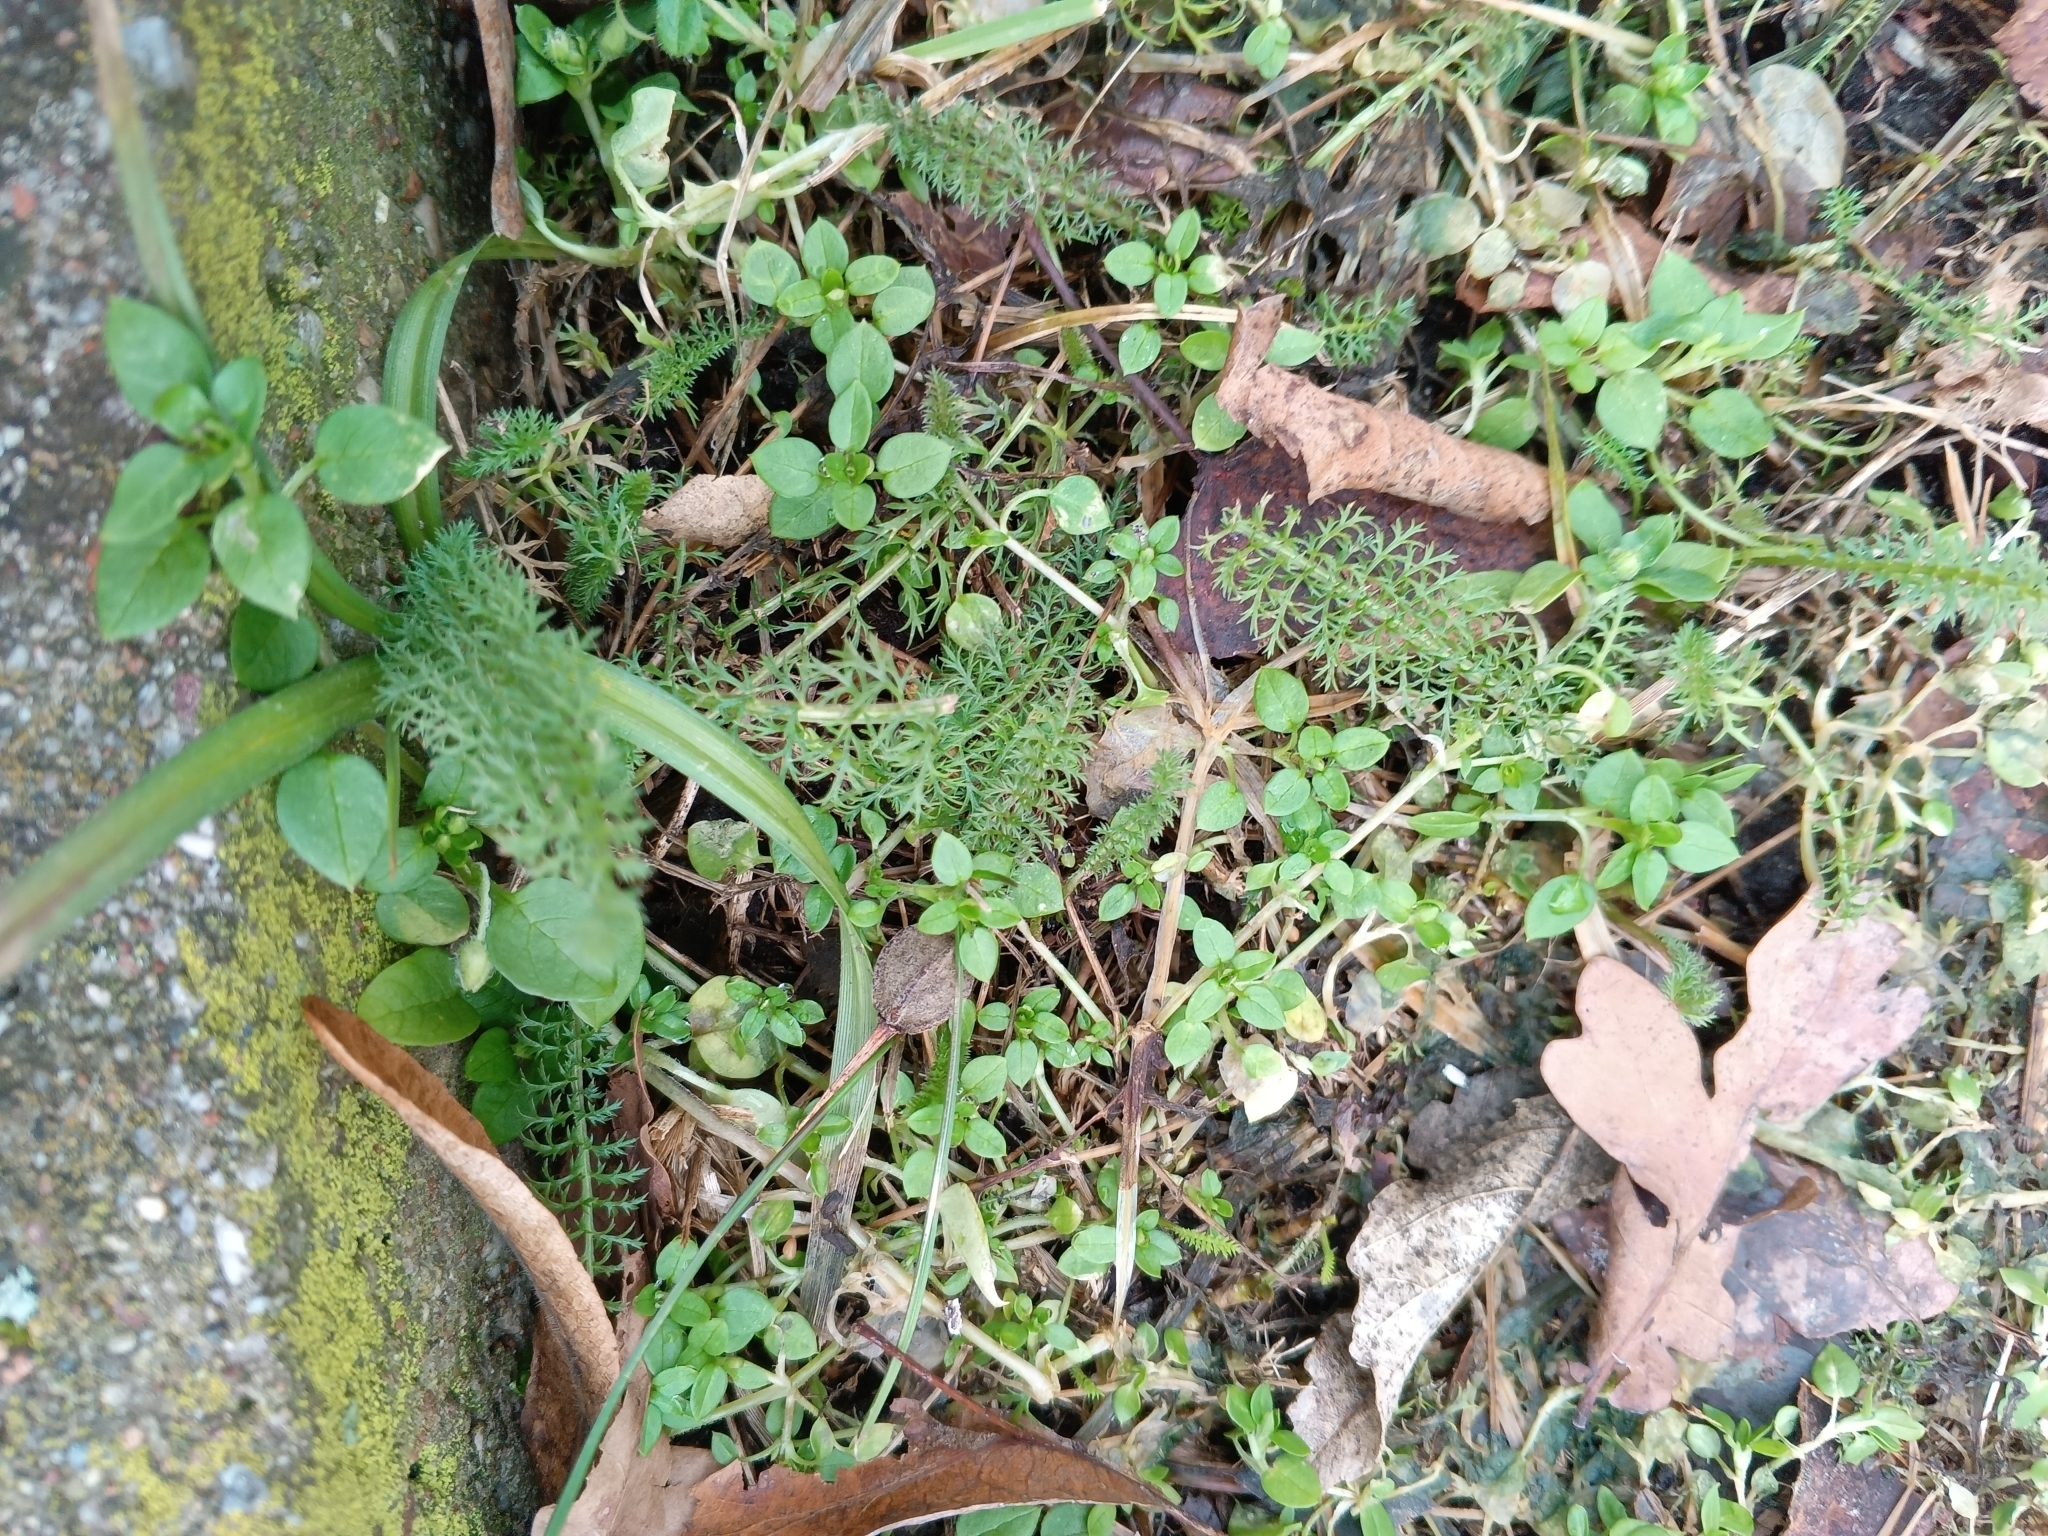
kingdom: Plantae
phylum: Tracheophyta
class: Magnoliopsida
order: Asterales
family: Asteraceae
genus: Achillea
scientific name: Achillea millefolium
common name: Yarrow
